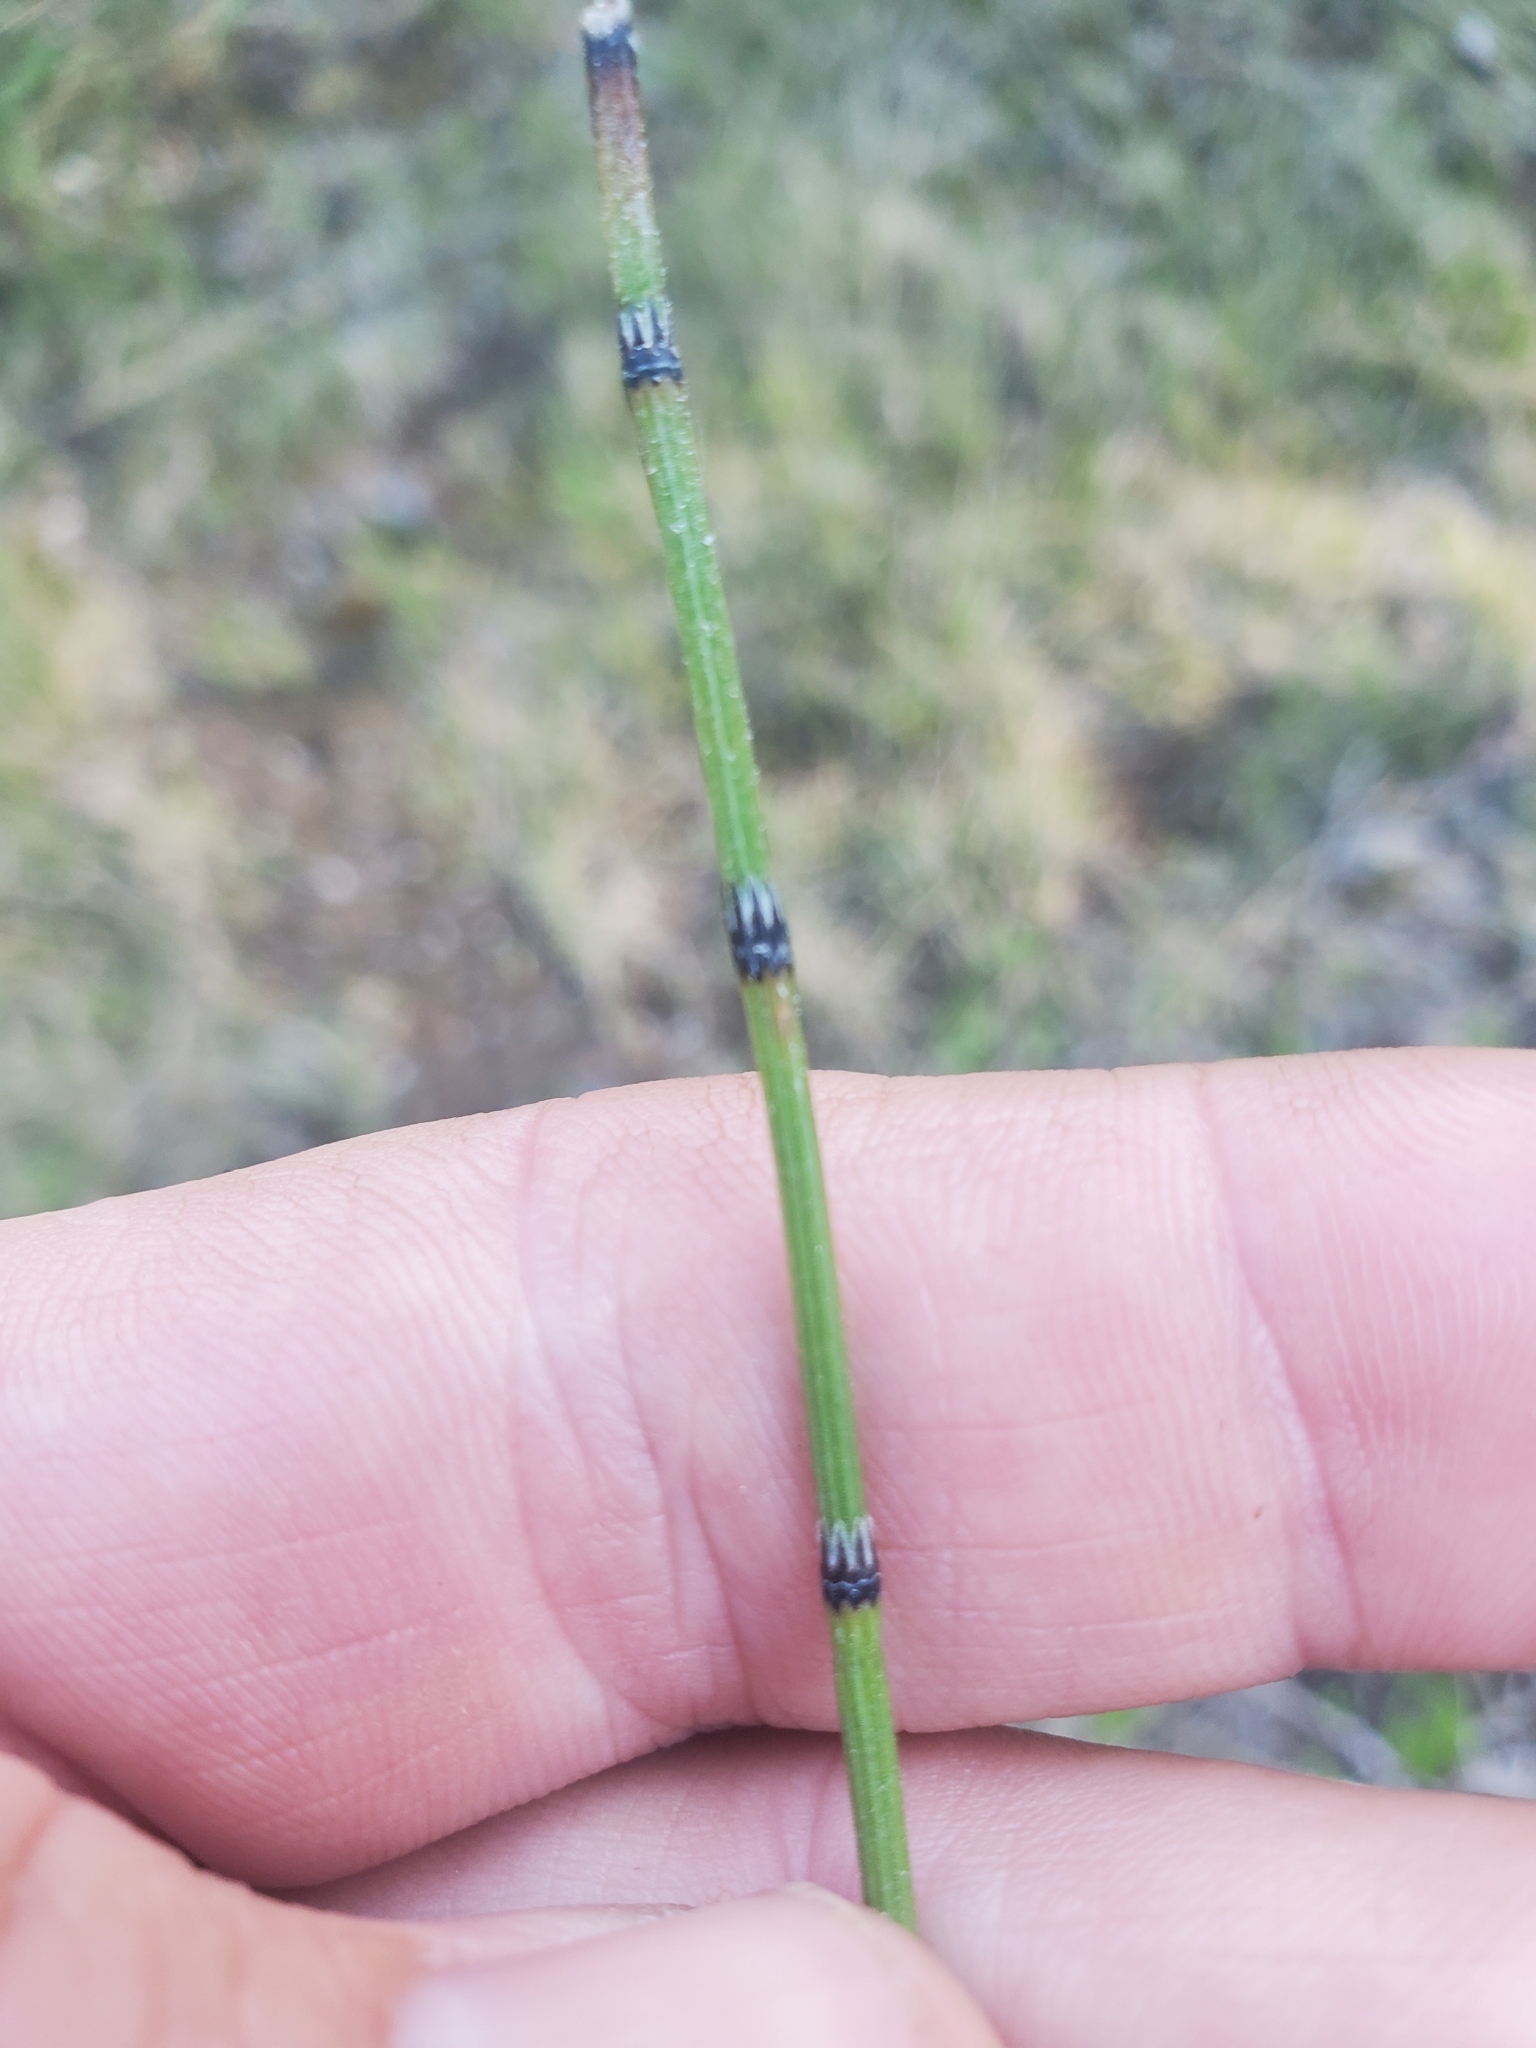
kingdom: Plantae
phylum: Tracheophyta
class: Polypodiopsida
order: Equisetales
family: Equisetaceae
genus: Equisetum
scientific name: Equisetum variegatum
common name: Variegated horsetail
